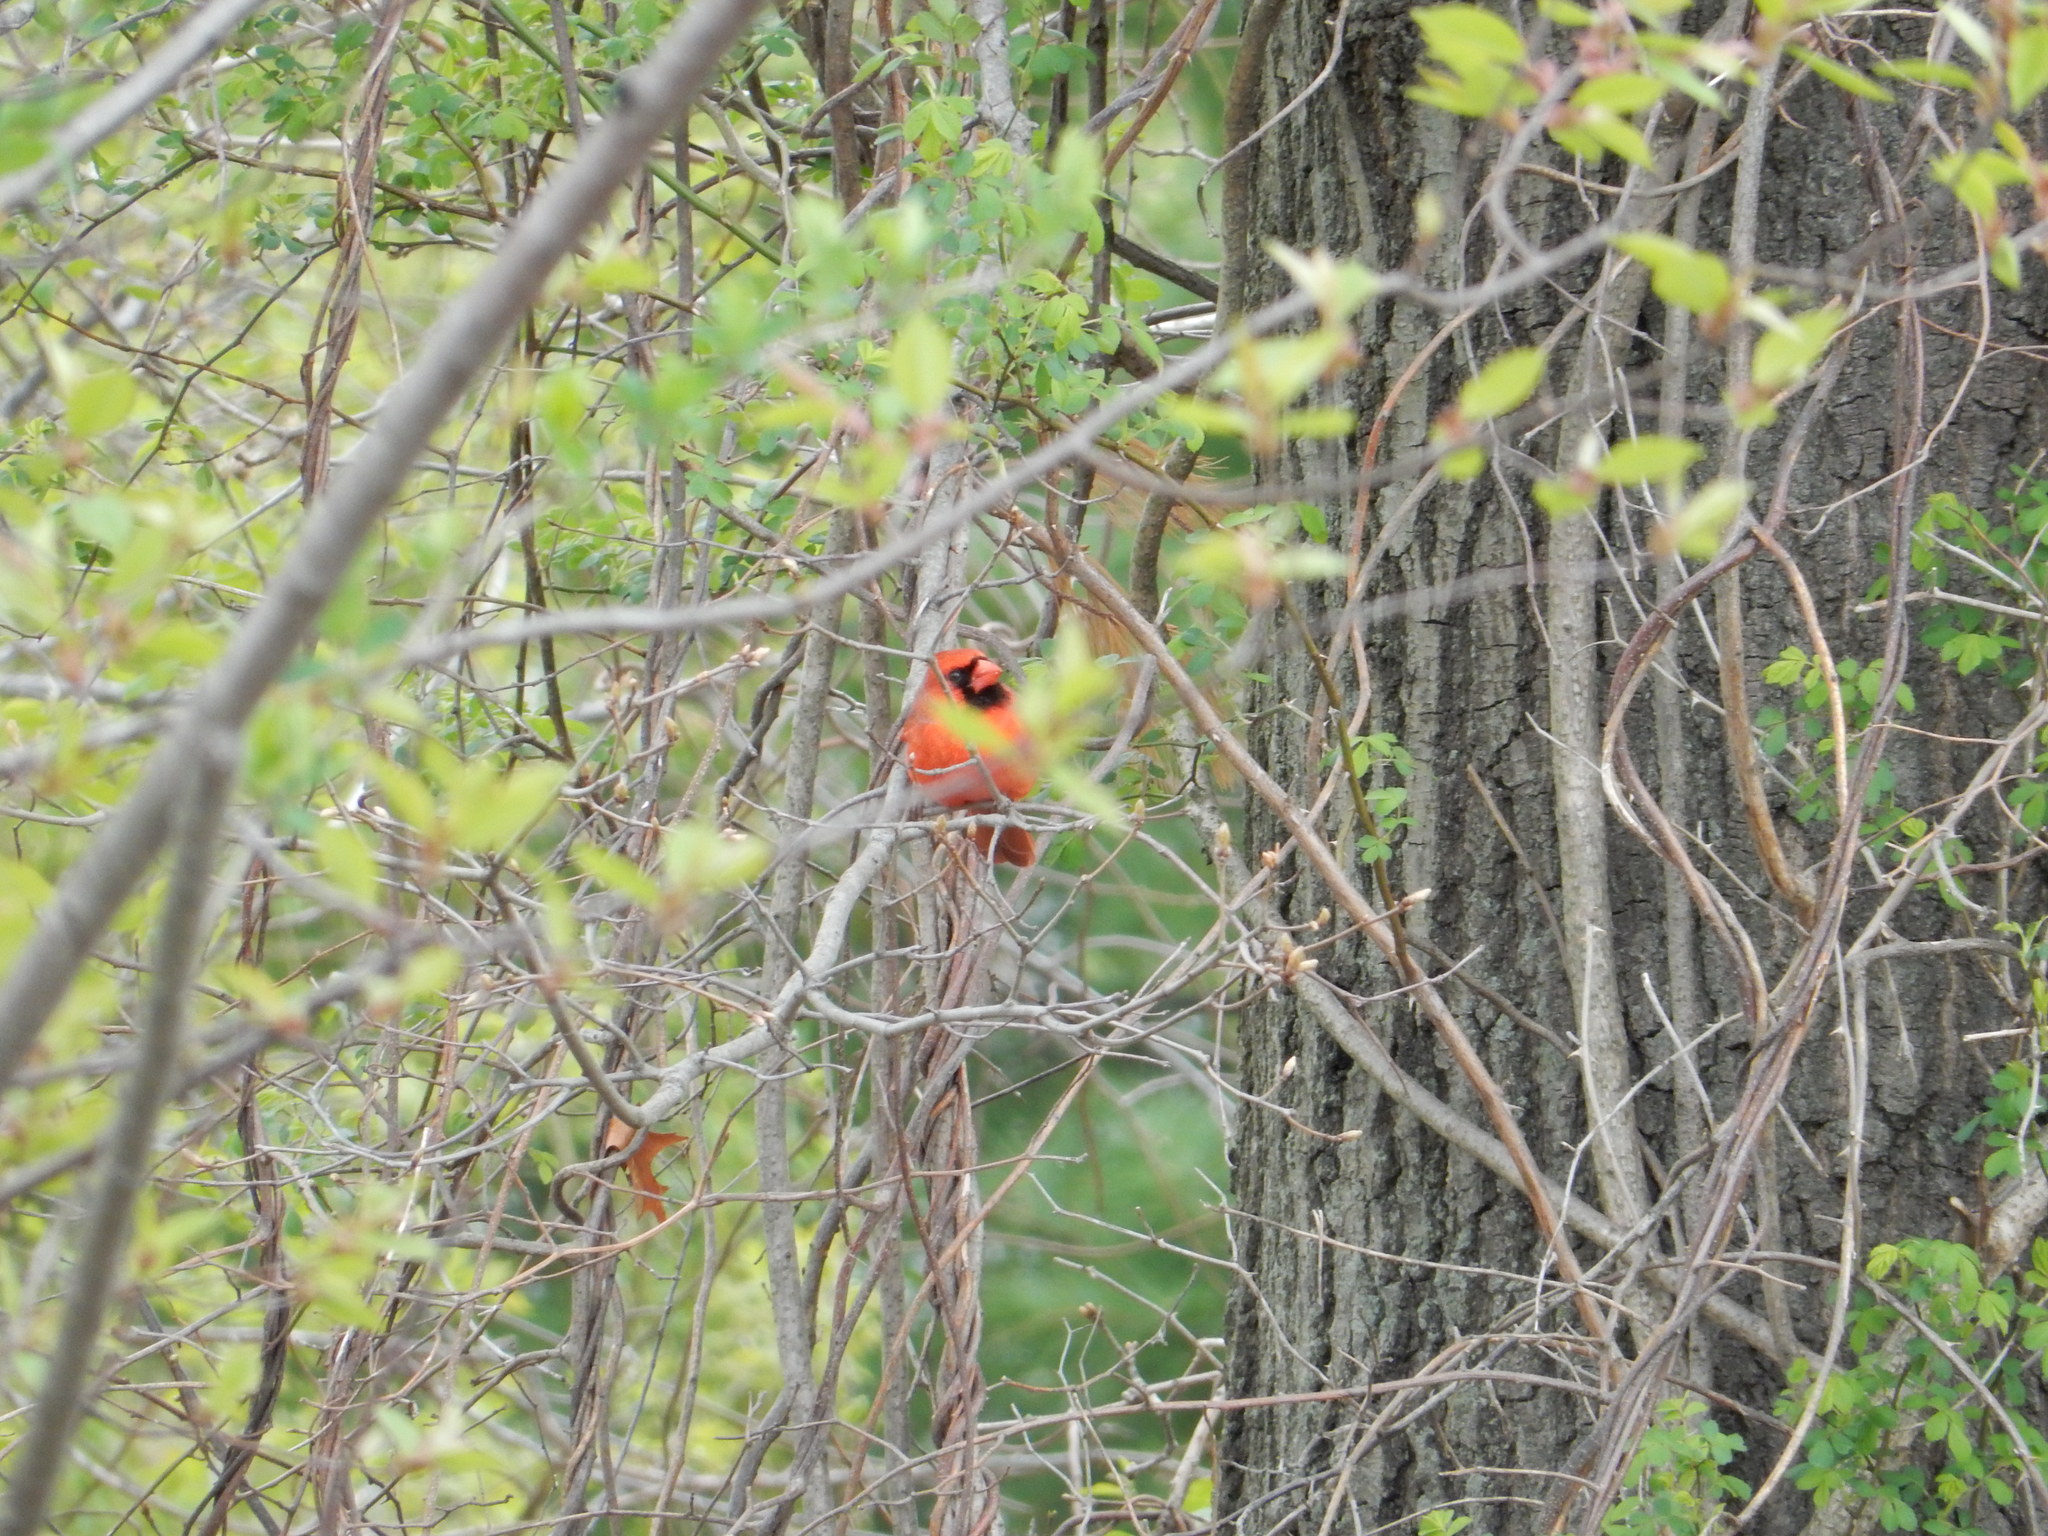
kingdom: Animalia
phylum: Chordata
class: Aves
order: Passeriformes
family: Cardinalidae
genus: Cardinalis
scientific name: Cardinalis cardinalis
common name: Northern cardinal
